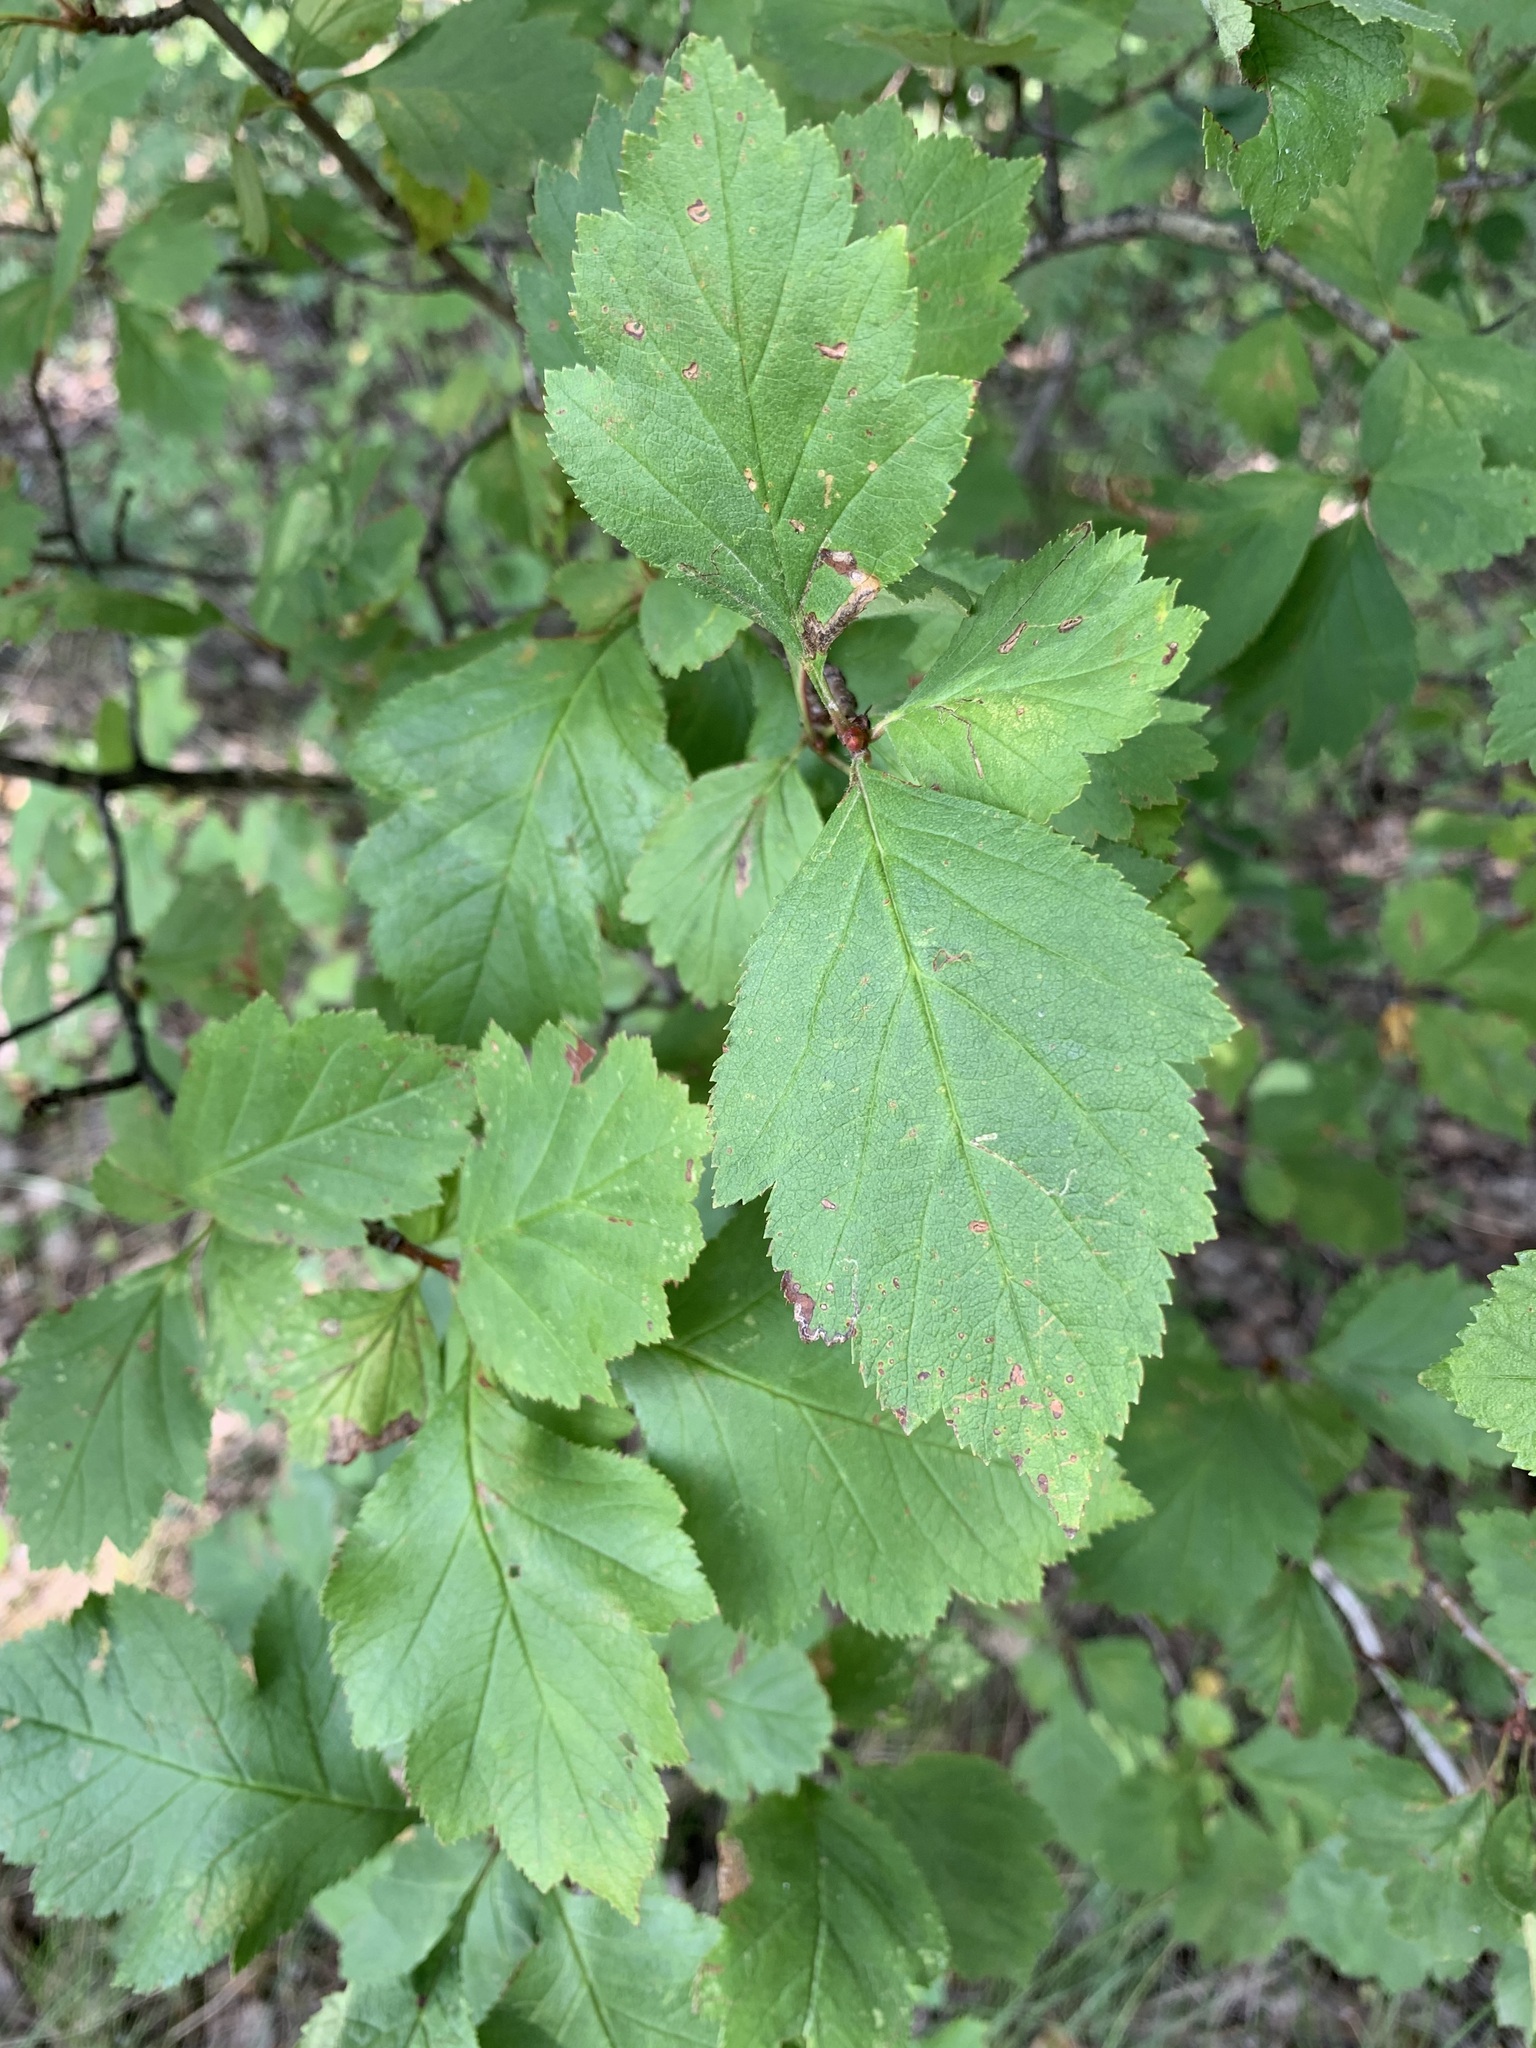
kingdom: Plantae
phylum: Tracheophyta
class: Magnoliopsida
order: Rosales
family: Rosaceae
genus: Crataegus
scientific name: Crataegus sanguinea
